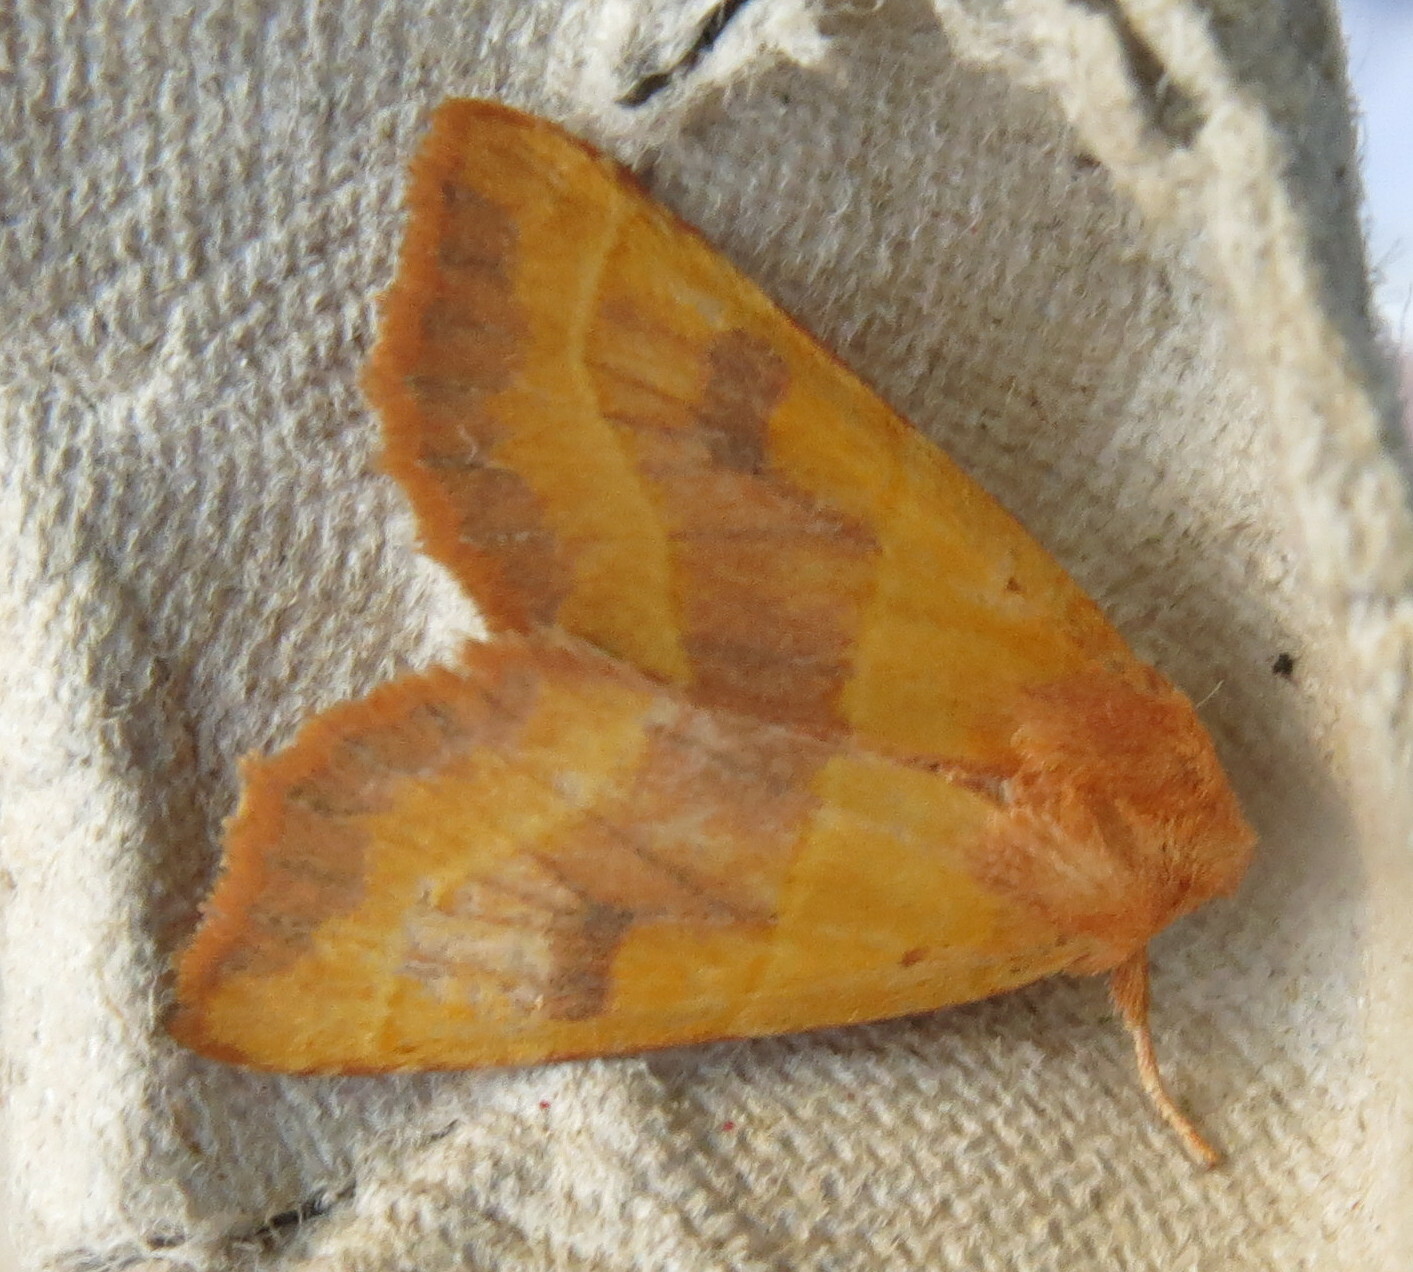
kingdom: Animalia
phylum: Arthropoda
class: Insecta
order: Lepidoptera
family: Noctuidae
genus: Atethmia
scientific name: Atethmia centrago
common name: Centre-barred sallow
